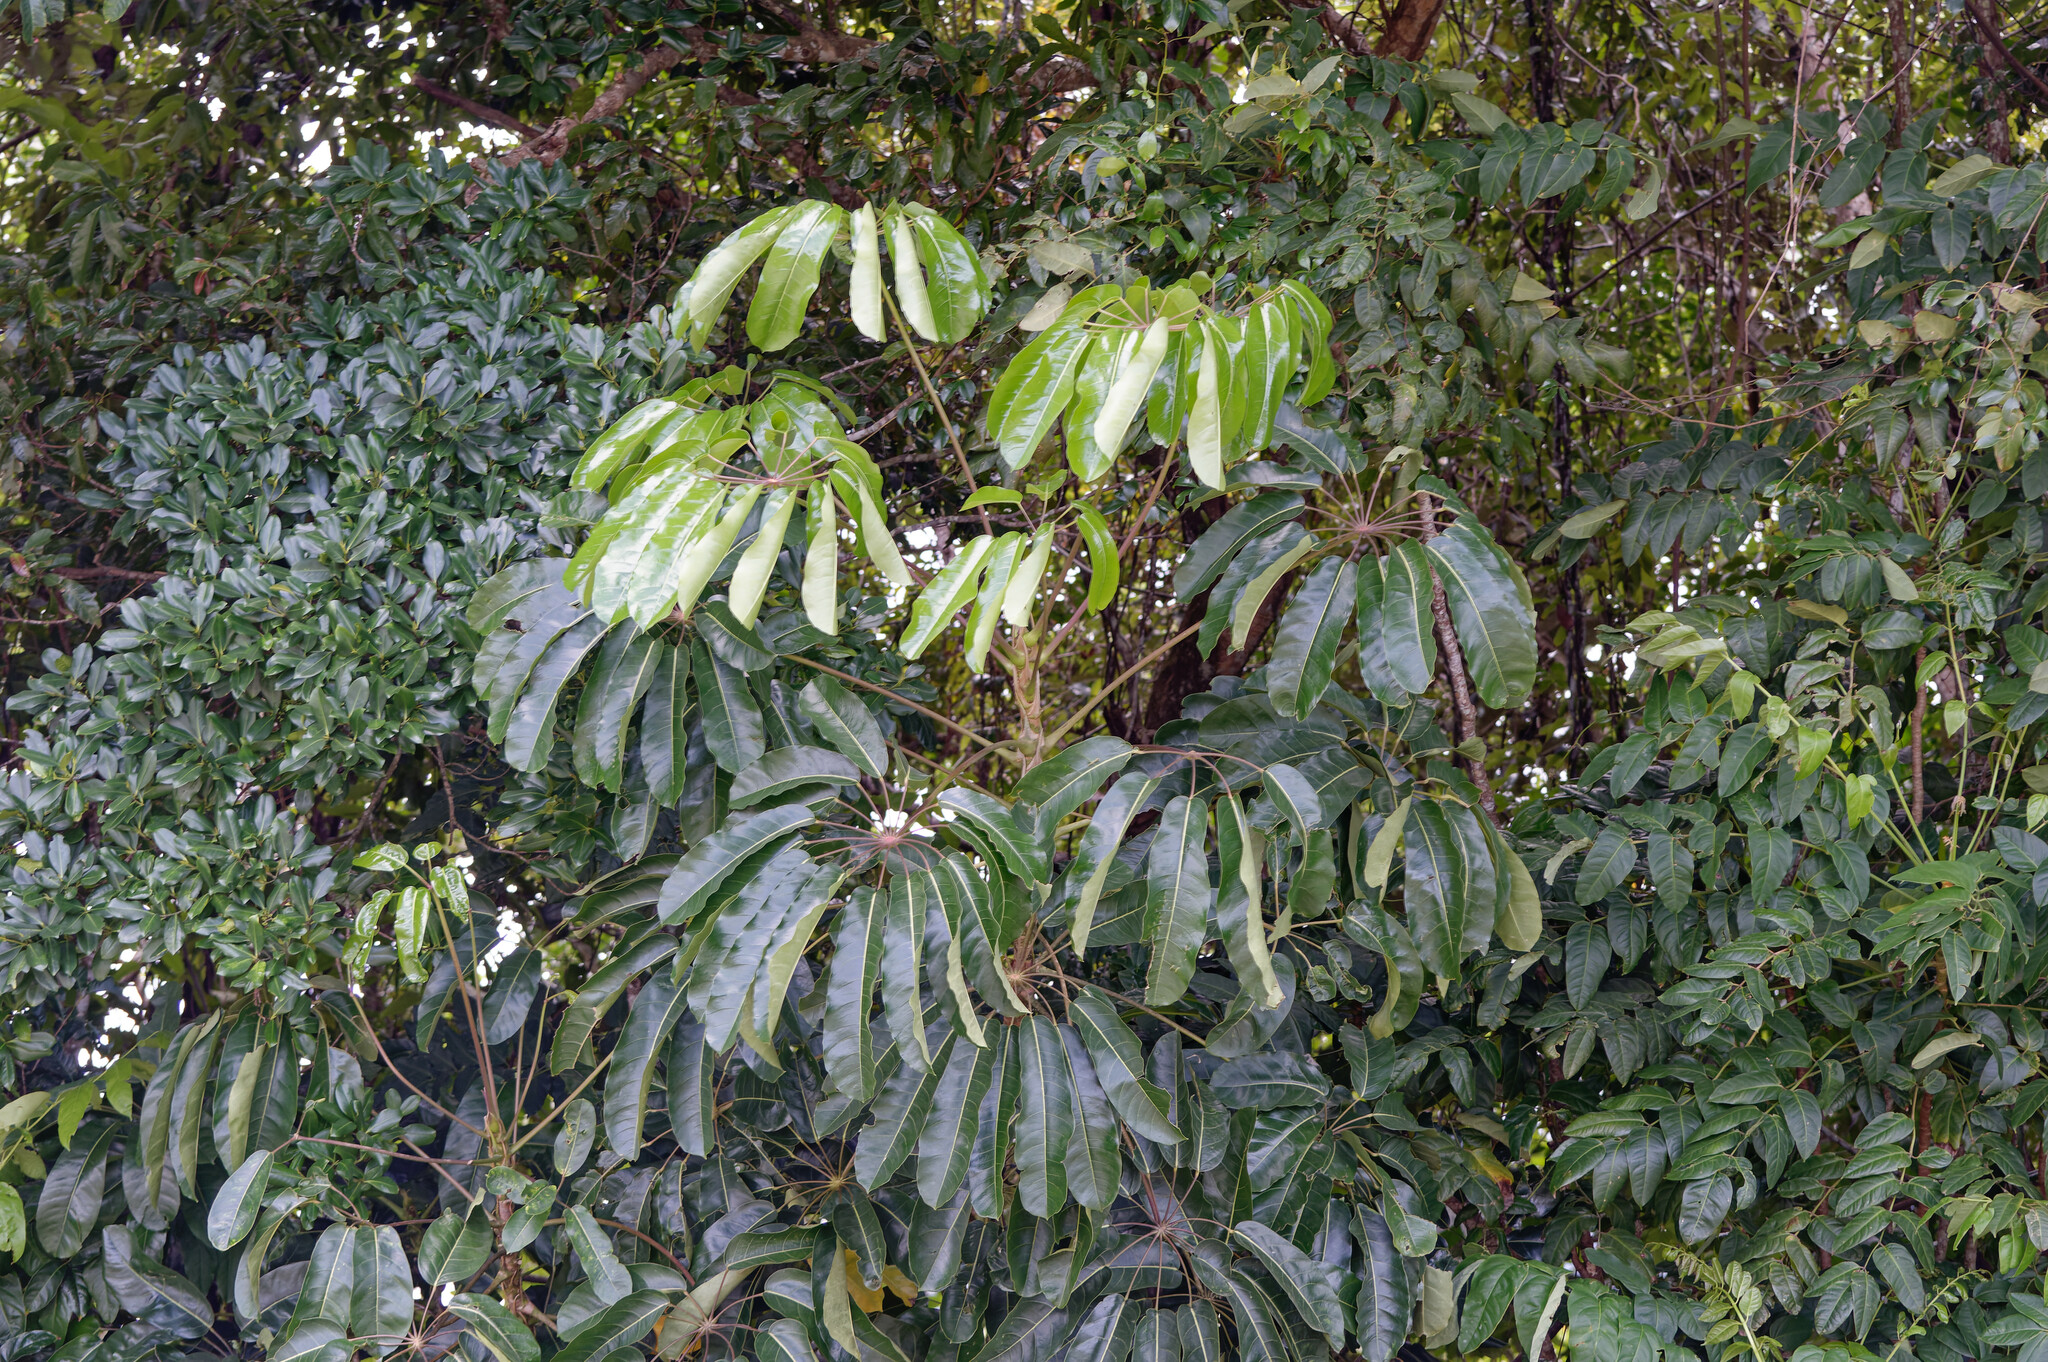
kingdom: Plantae
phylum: Tracheophyta
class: Magnoliopsida
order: Apiales
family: Araliaceae
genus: Heptapleurum
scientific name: Heptapleurum actinophyllum
